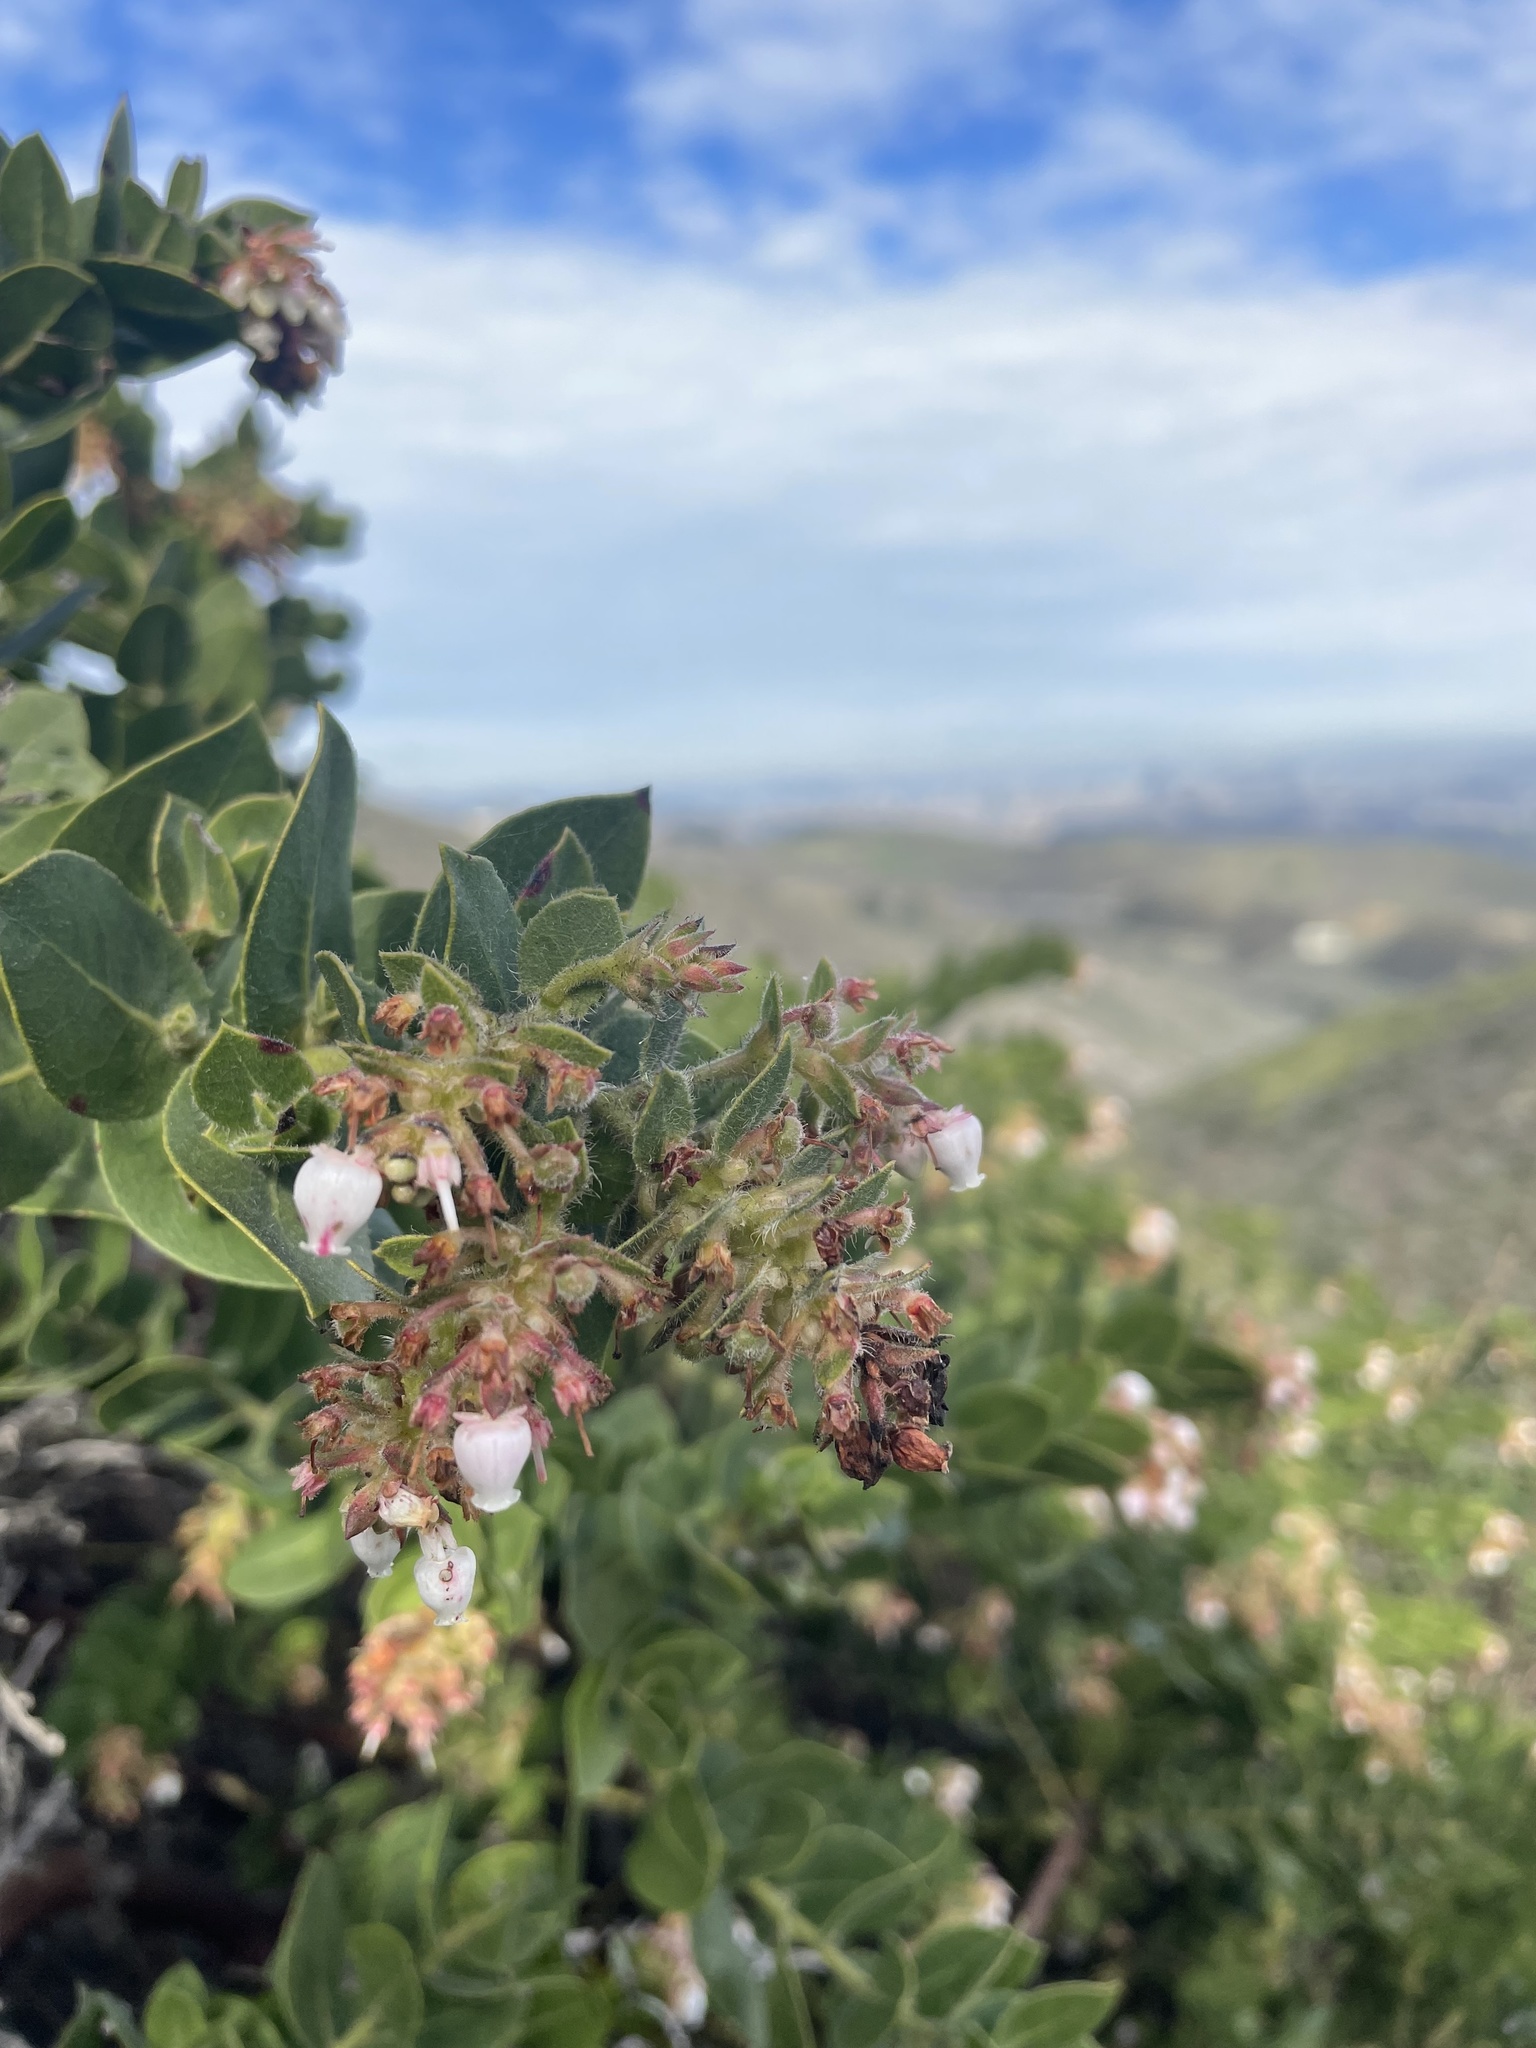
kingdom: Plantae
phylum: Tracheophyta
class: Magnoliopsida
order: Ericales
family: Ericaceae
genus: Arctostaphylos
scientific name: Arctostaphylos montaraensis
